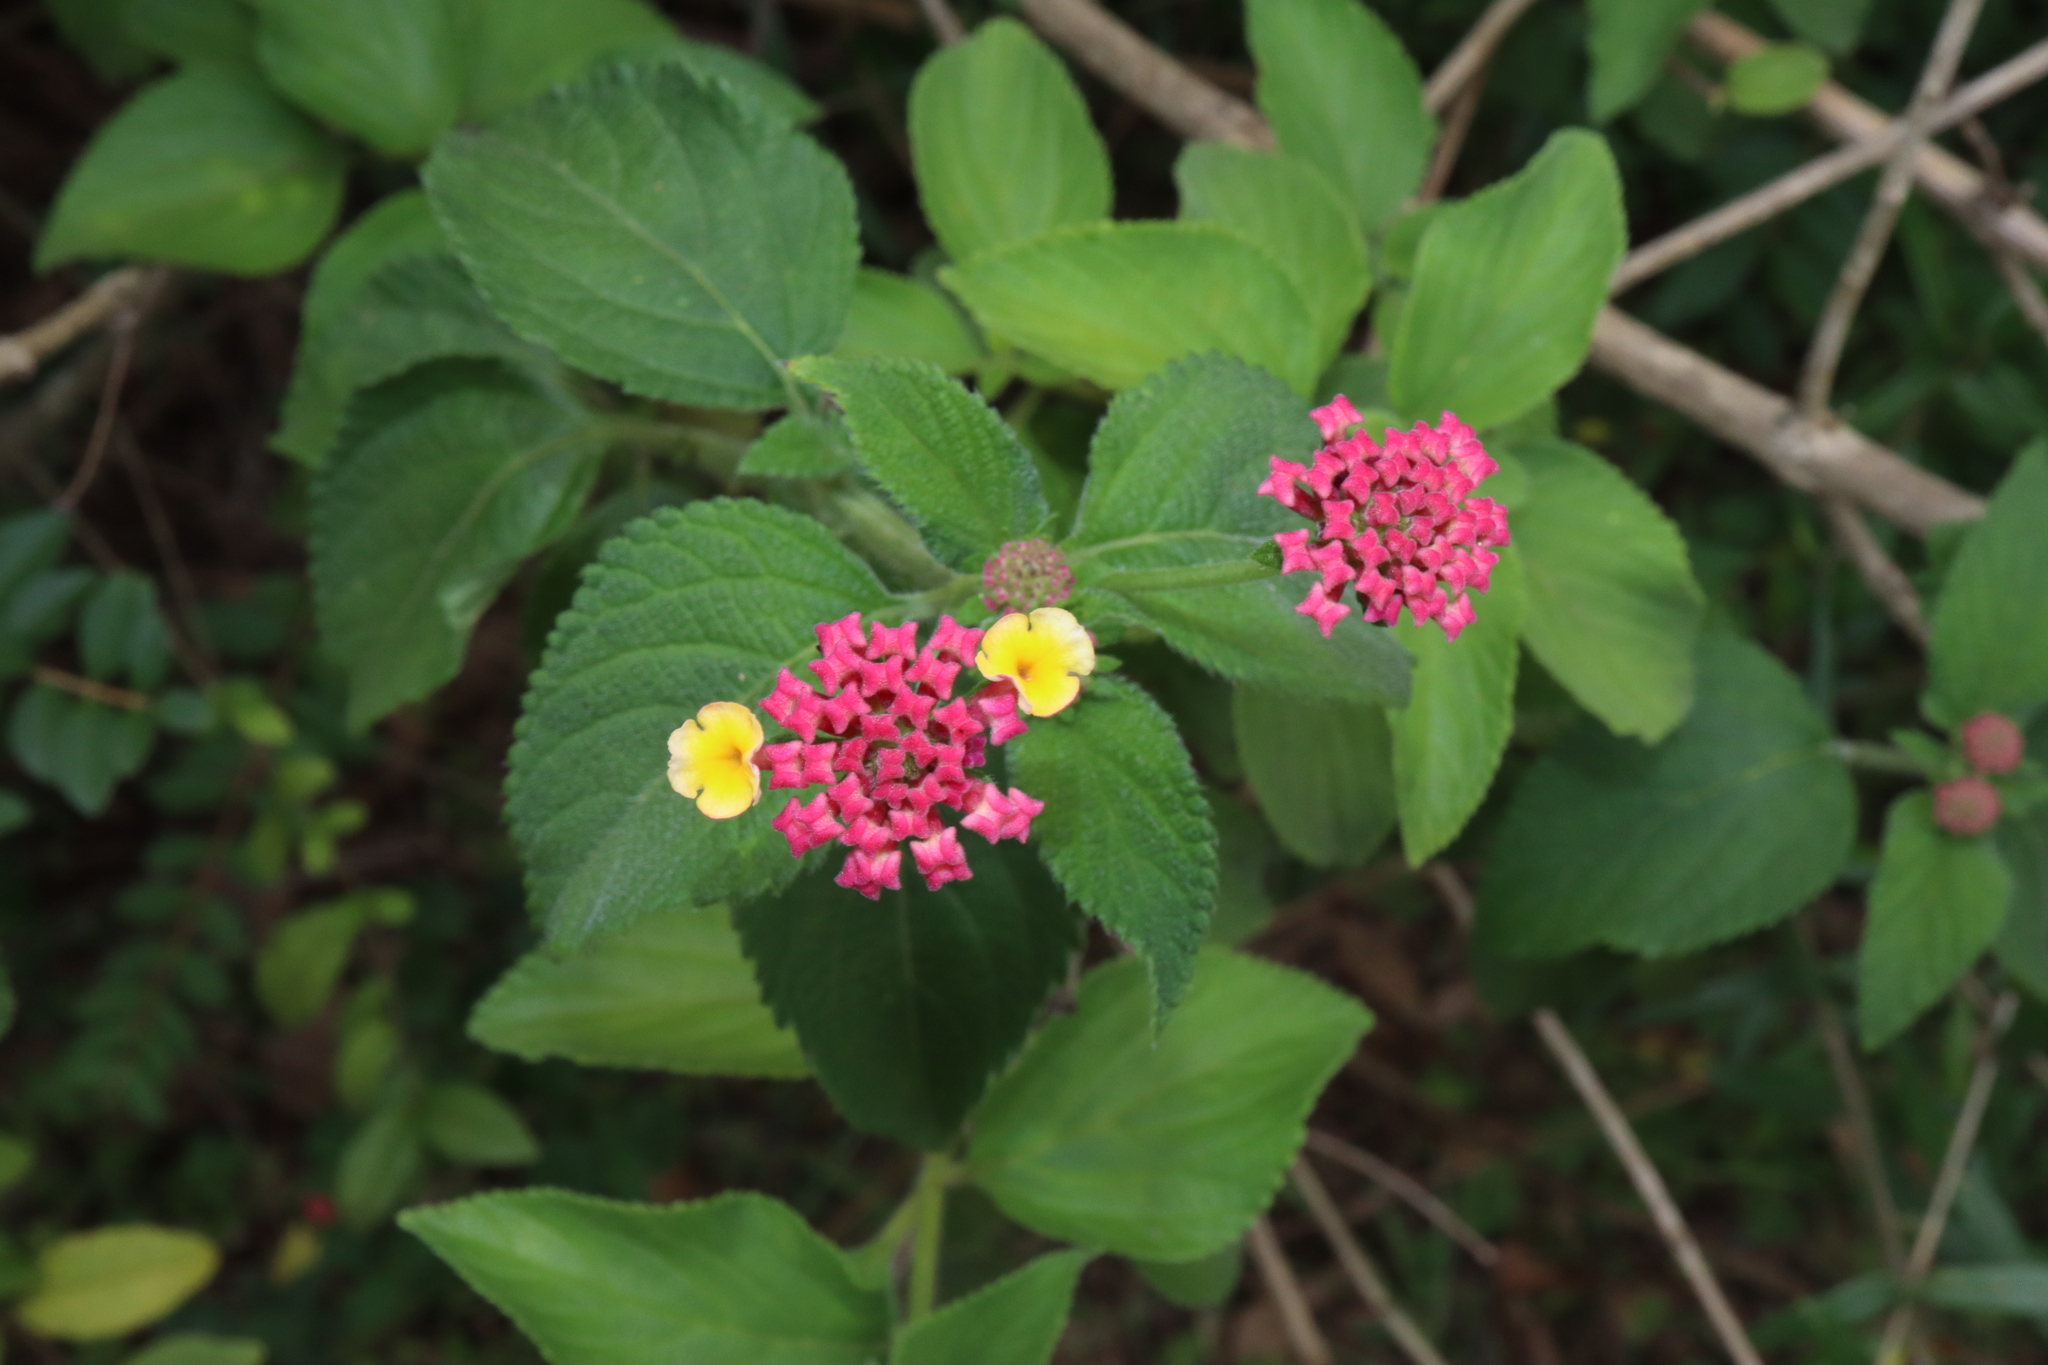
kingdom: Plantae
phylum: Tracheophyta
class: Magnoliopsida
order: Lamiales
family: Verbenaceae
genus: Lantana
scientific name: Lantana camara
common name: Lantana
